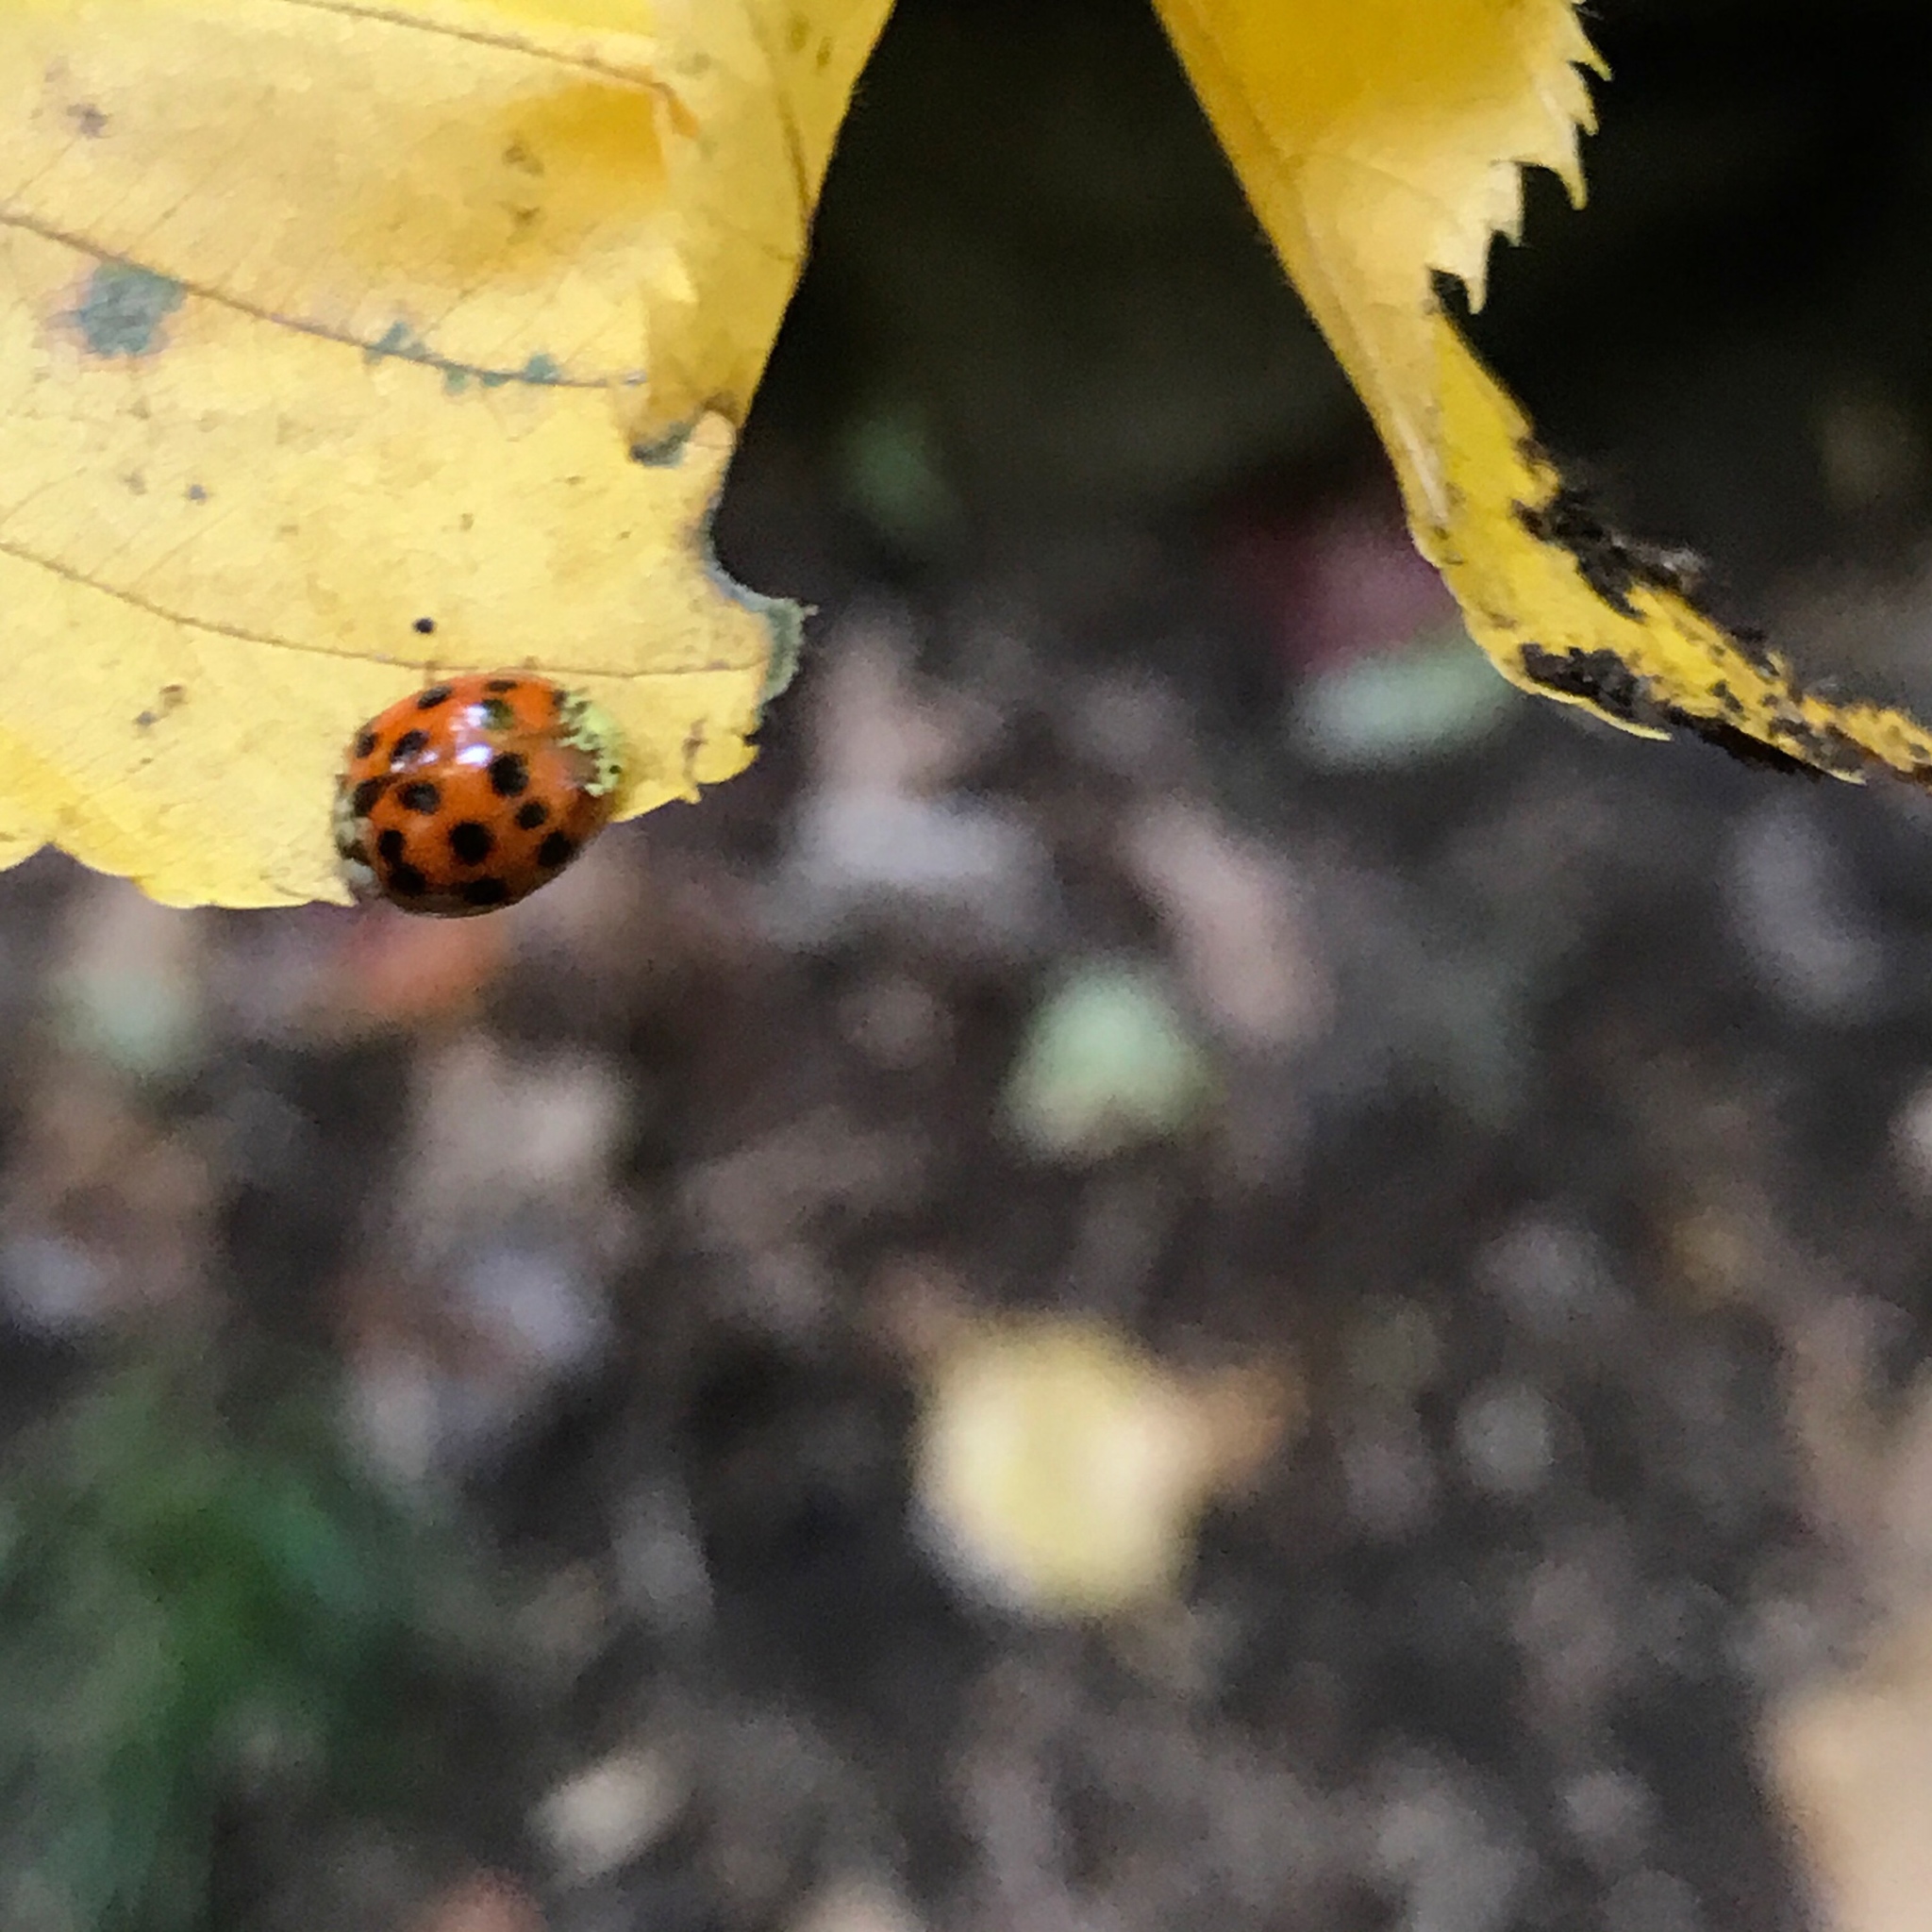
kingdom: Animalia
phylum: Arthropoda
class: Insecta
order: Coleoptera
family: Coccinellidae
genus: Harmonia
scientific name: Harmonia axyridis
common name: Harlequin ladybird
